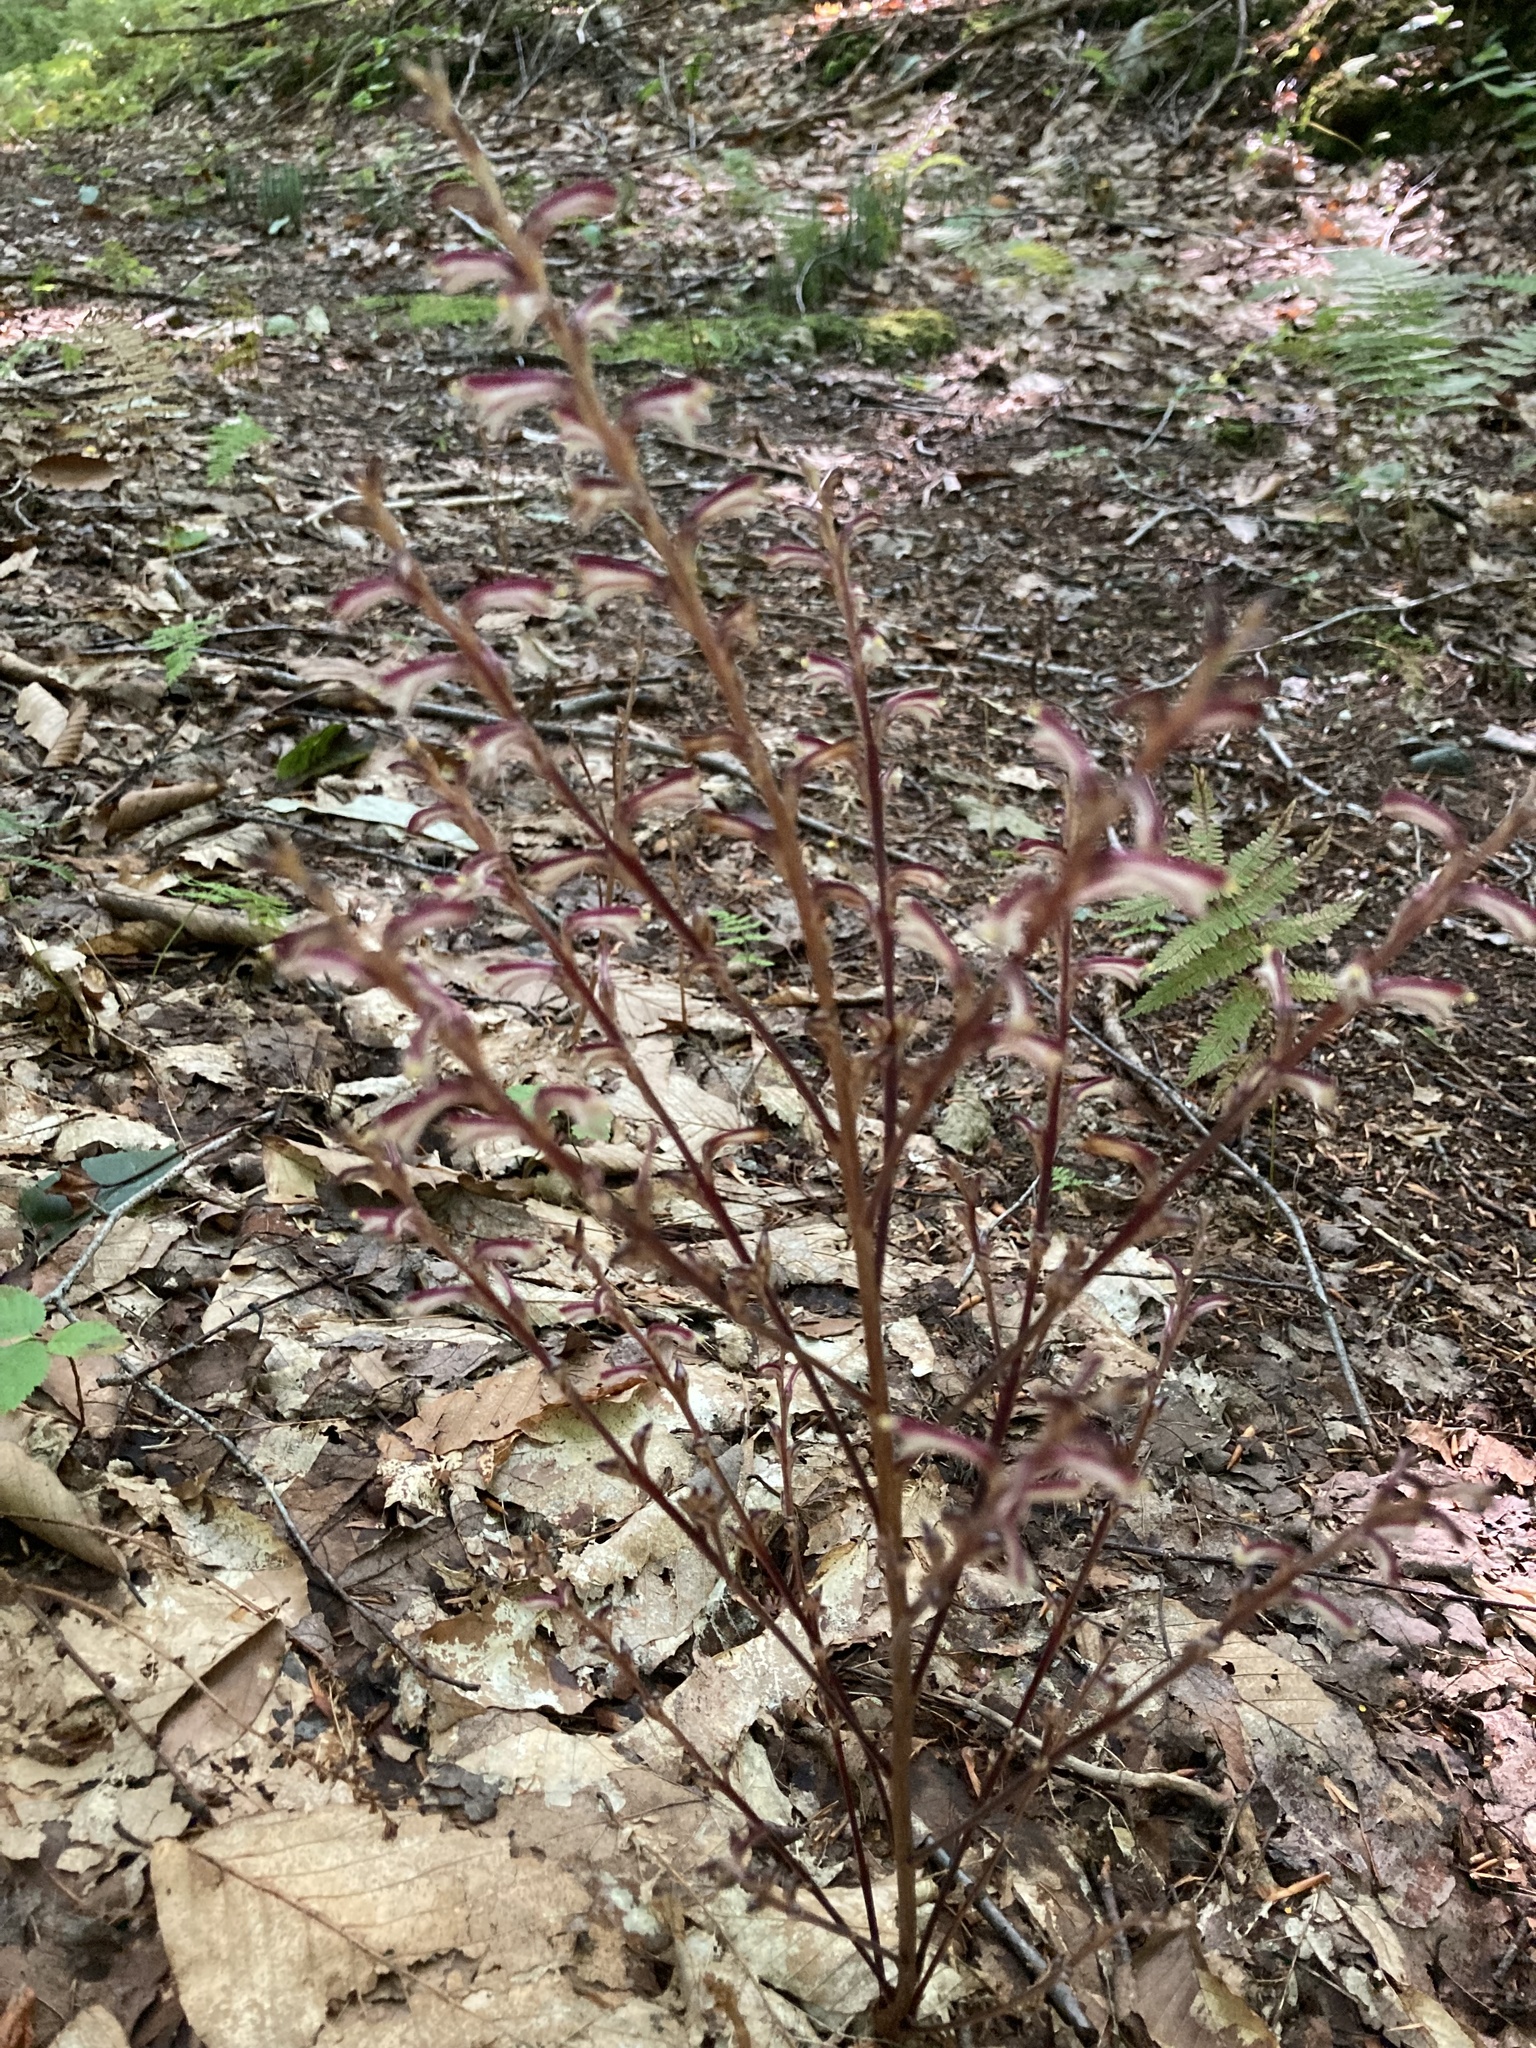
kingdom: Plantae
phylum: Tracheophyta
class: Magnoliopsida
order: Lamiales
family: Orobanchaceae
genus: Epifagus
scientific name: Epifagus virginiana
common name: Beechdrops
